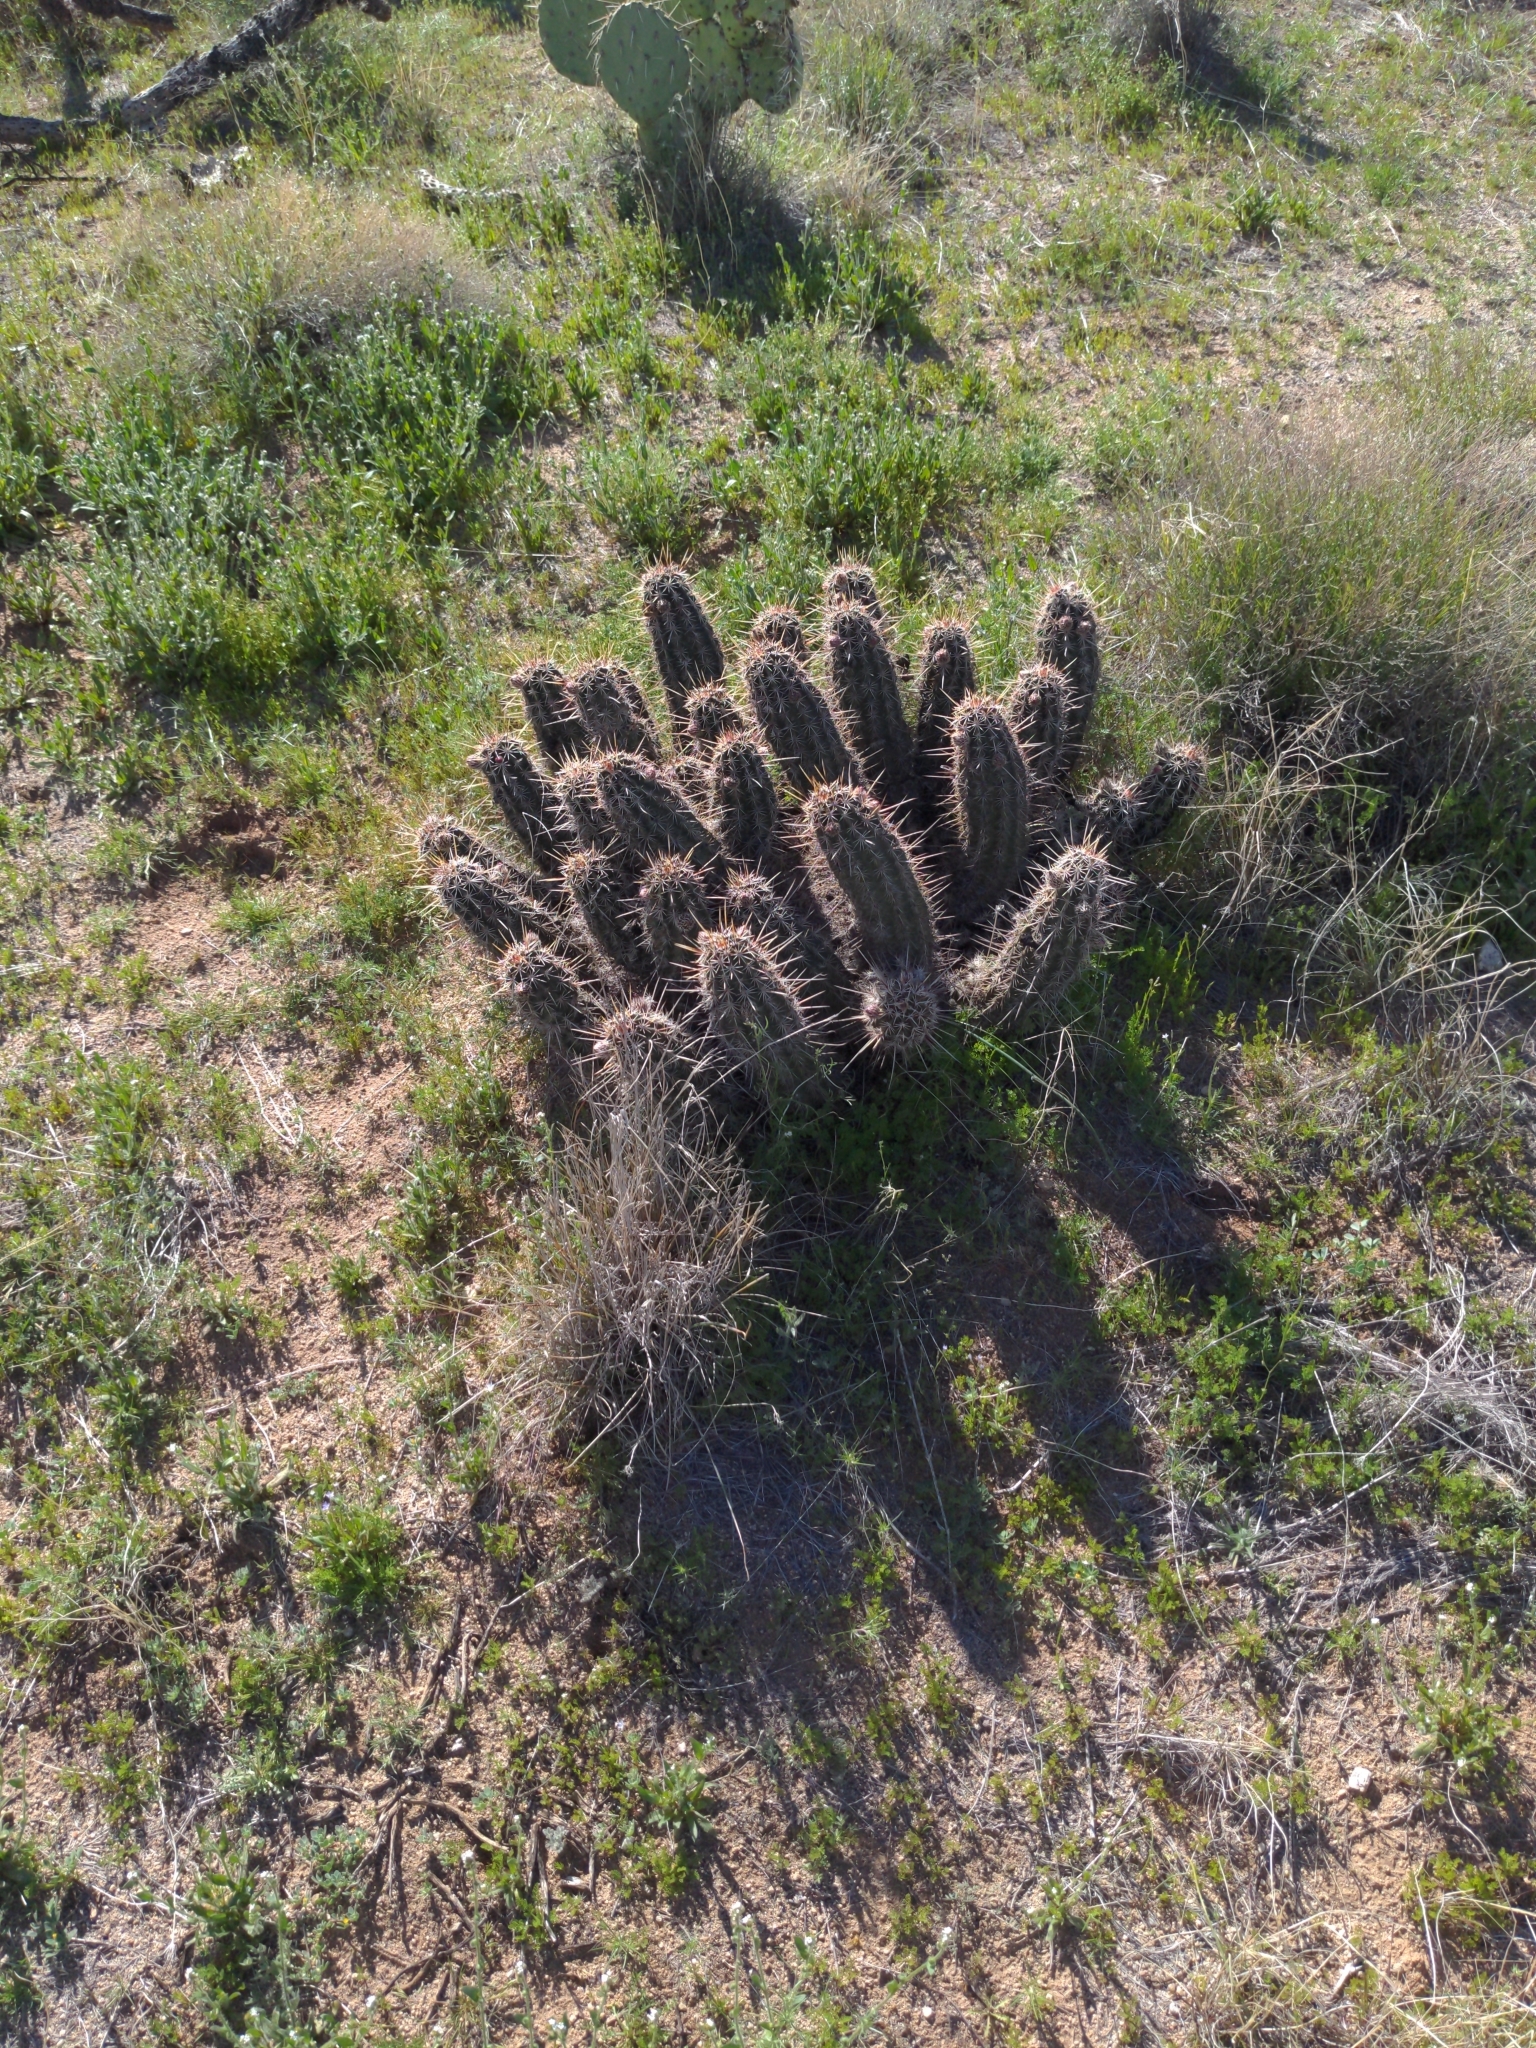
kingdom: Plantae
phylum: Tracheophyta
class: Magnoliopsida
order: Caryophyllales
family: Cactaceae
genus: Echinocereus
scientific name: Echinocereus fasciculatus
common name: Bundle hedgehog
